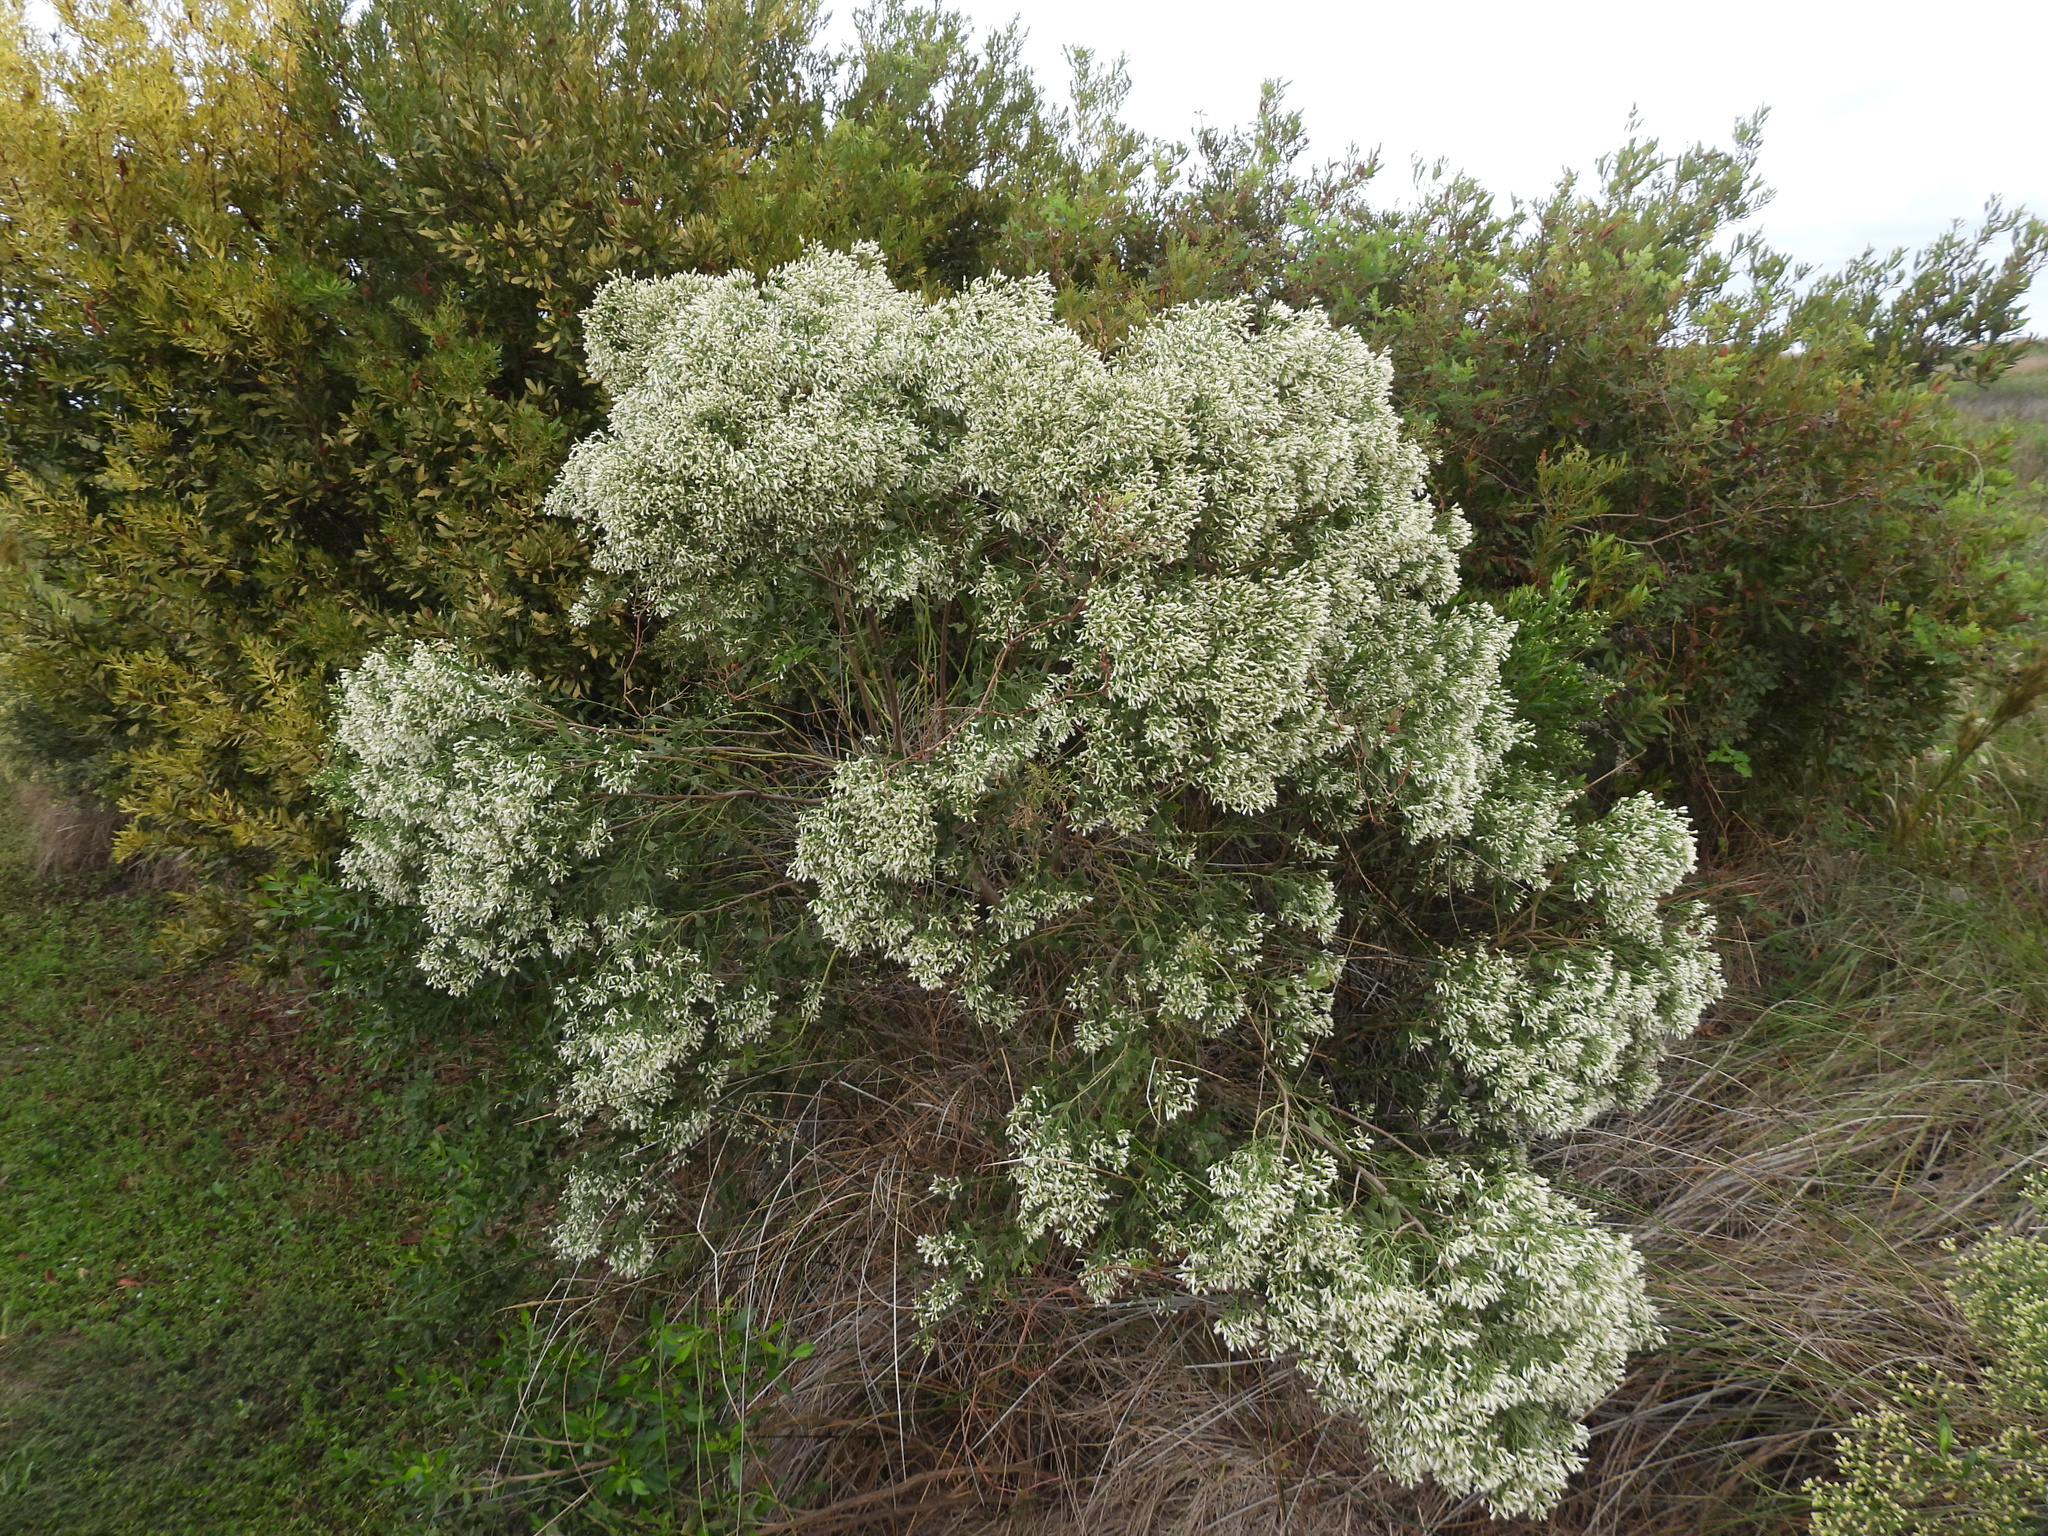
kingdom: Plantae
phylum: Tracheophyta
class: Magnoliopsida
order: Asterales
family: Asteraceae
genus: Baccharis
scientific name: Baccharis halimifolia
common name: Eastern baccharis
